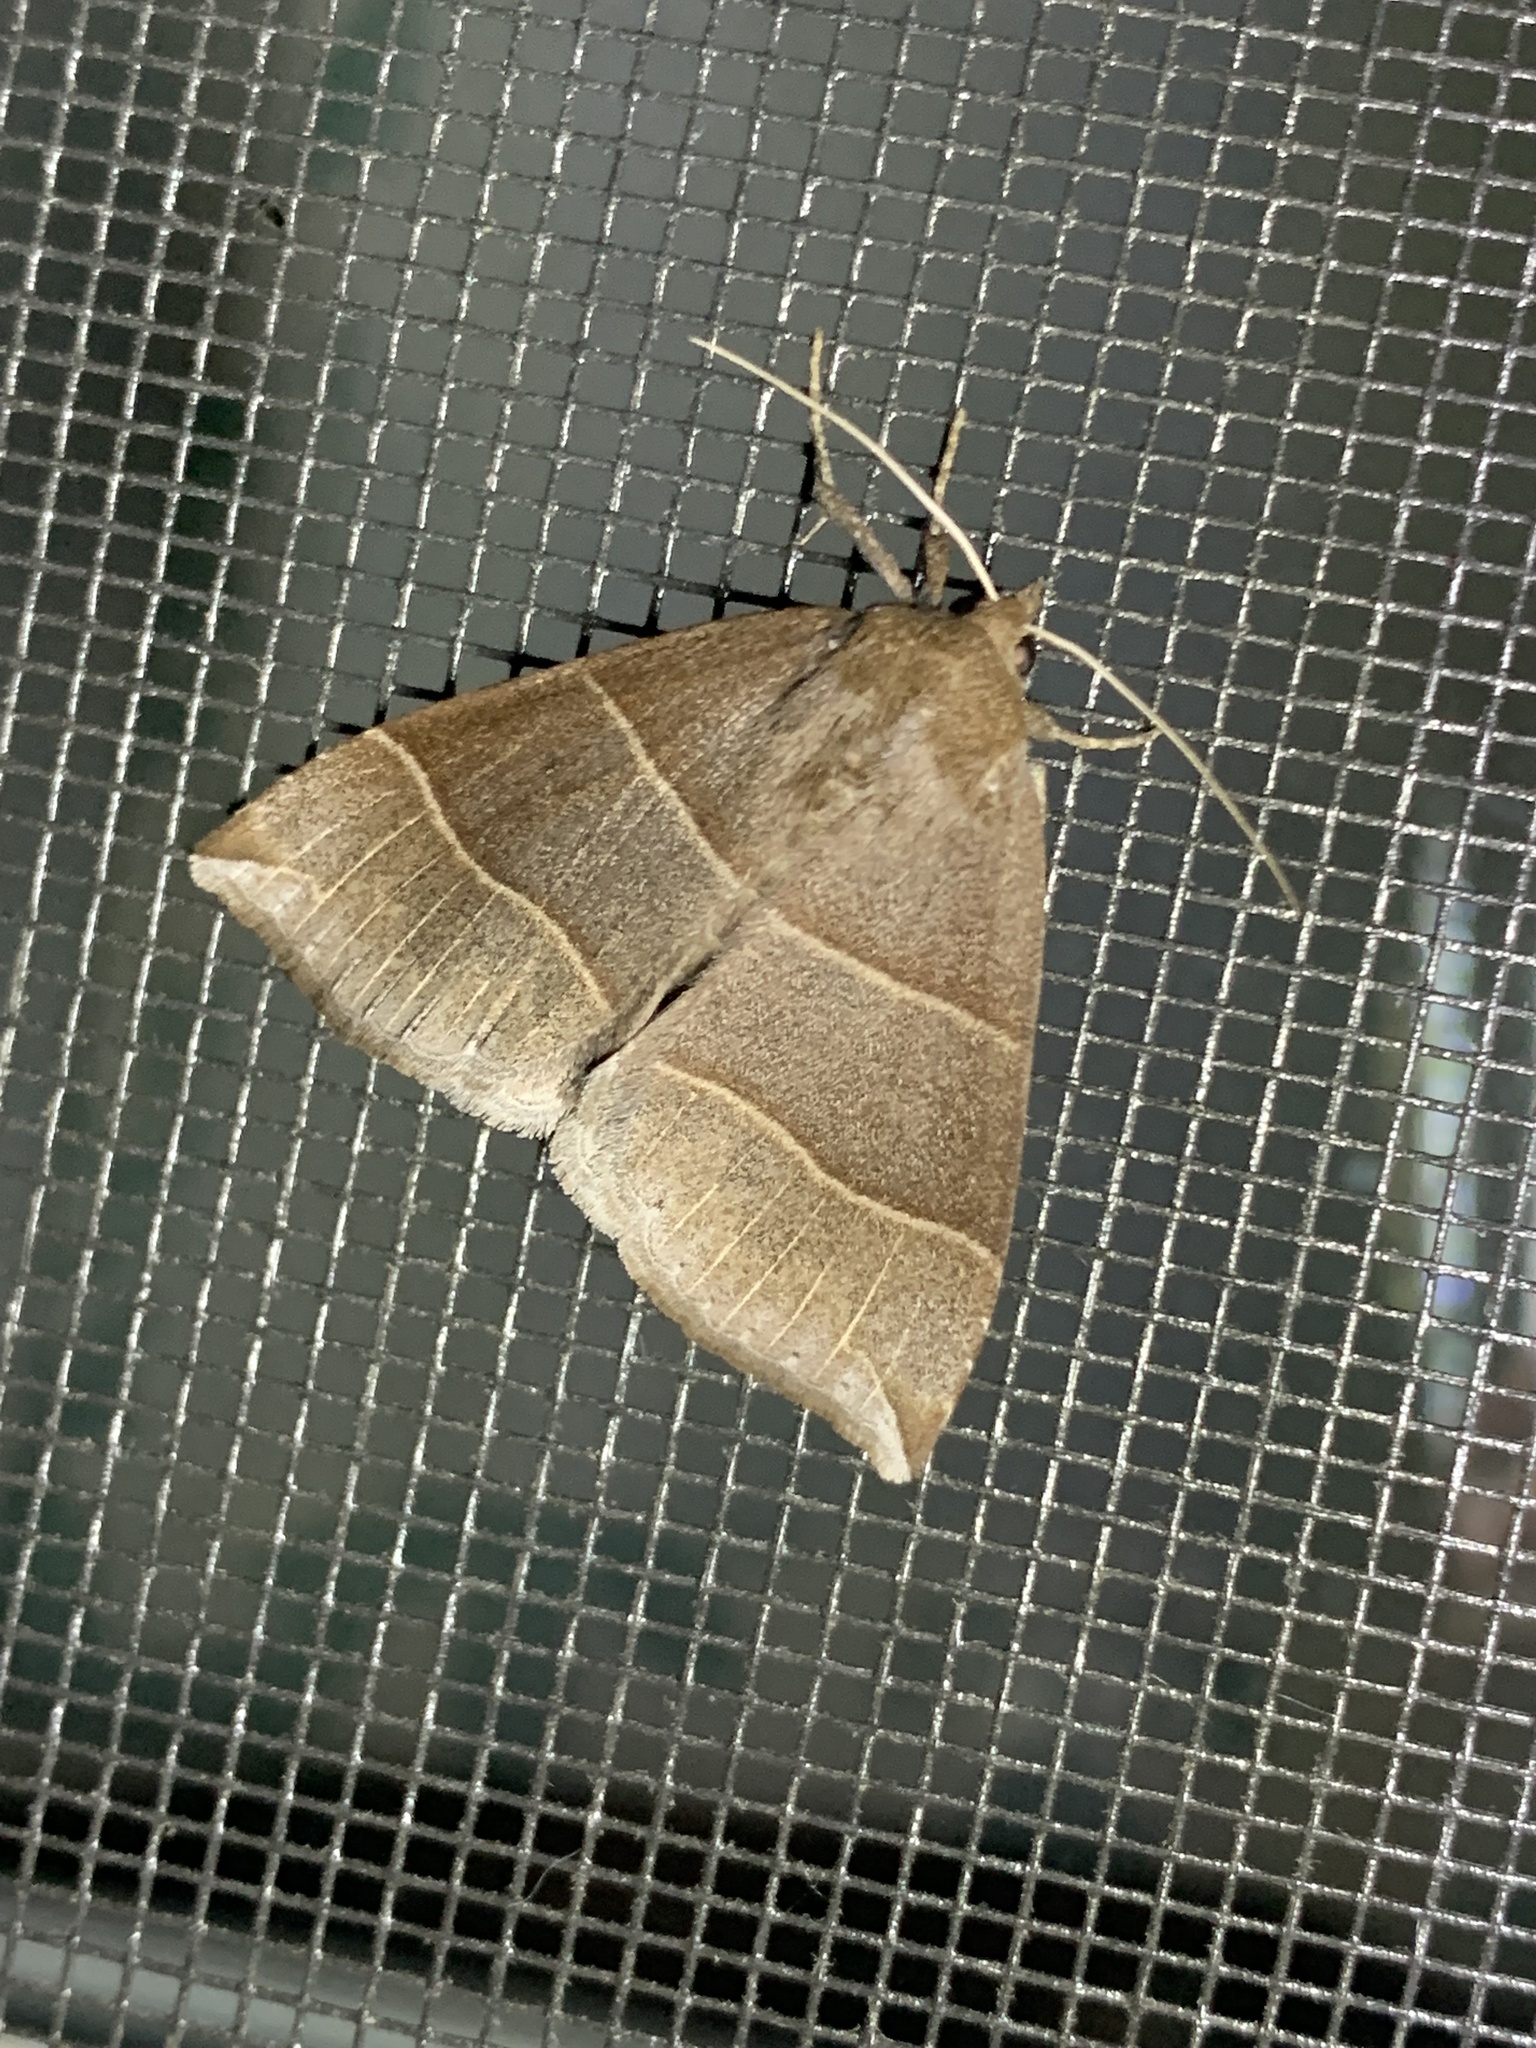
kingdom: Animalia
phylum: Arthropoda
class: Insecta
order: Lepidoptera
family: Erebidae
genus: Parallelia
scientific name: Parallelia bistriaris
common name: Maple looper moth
